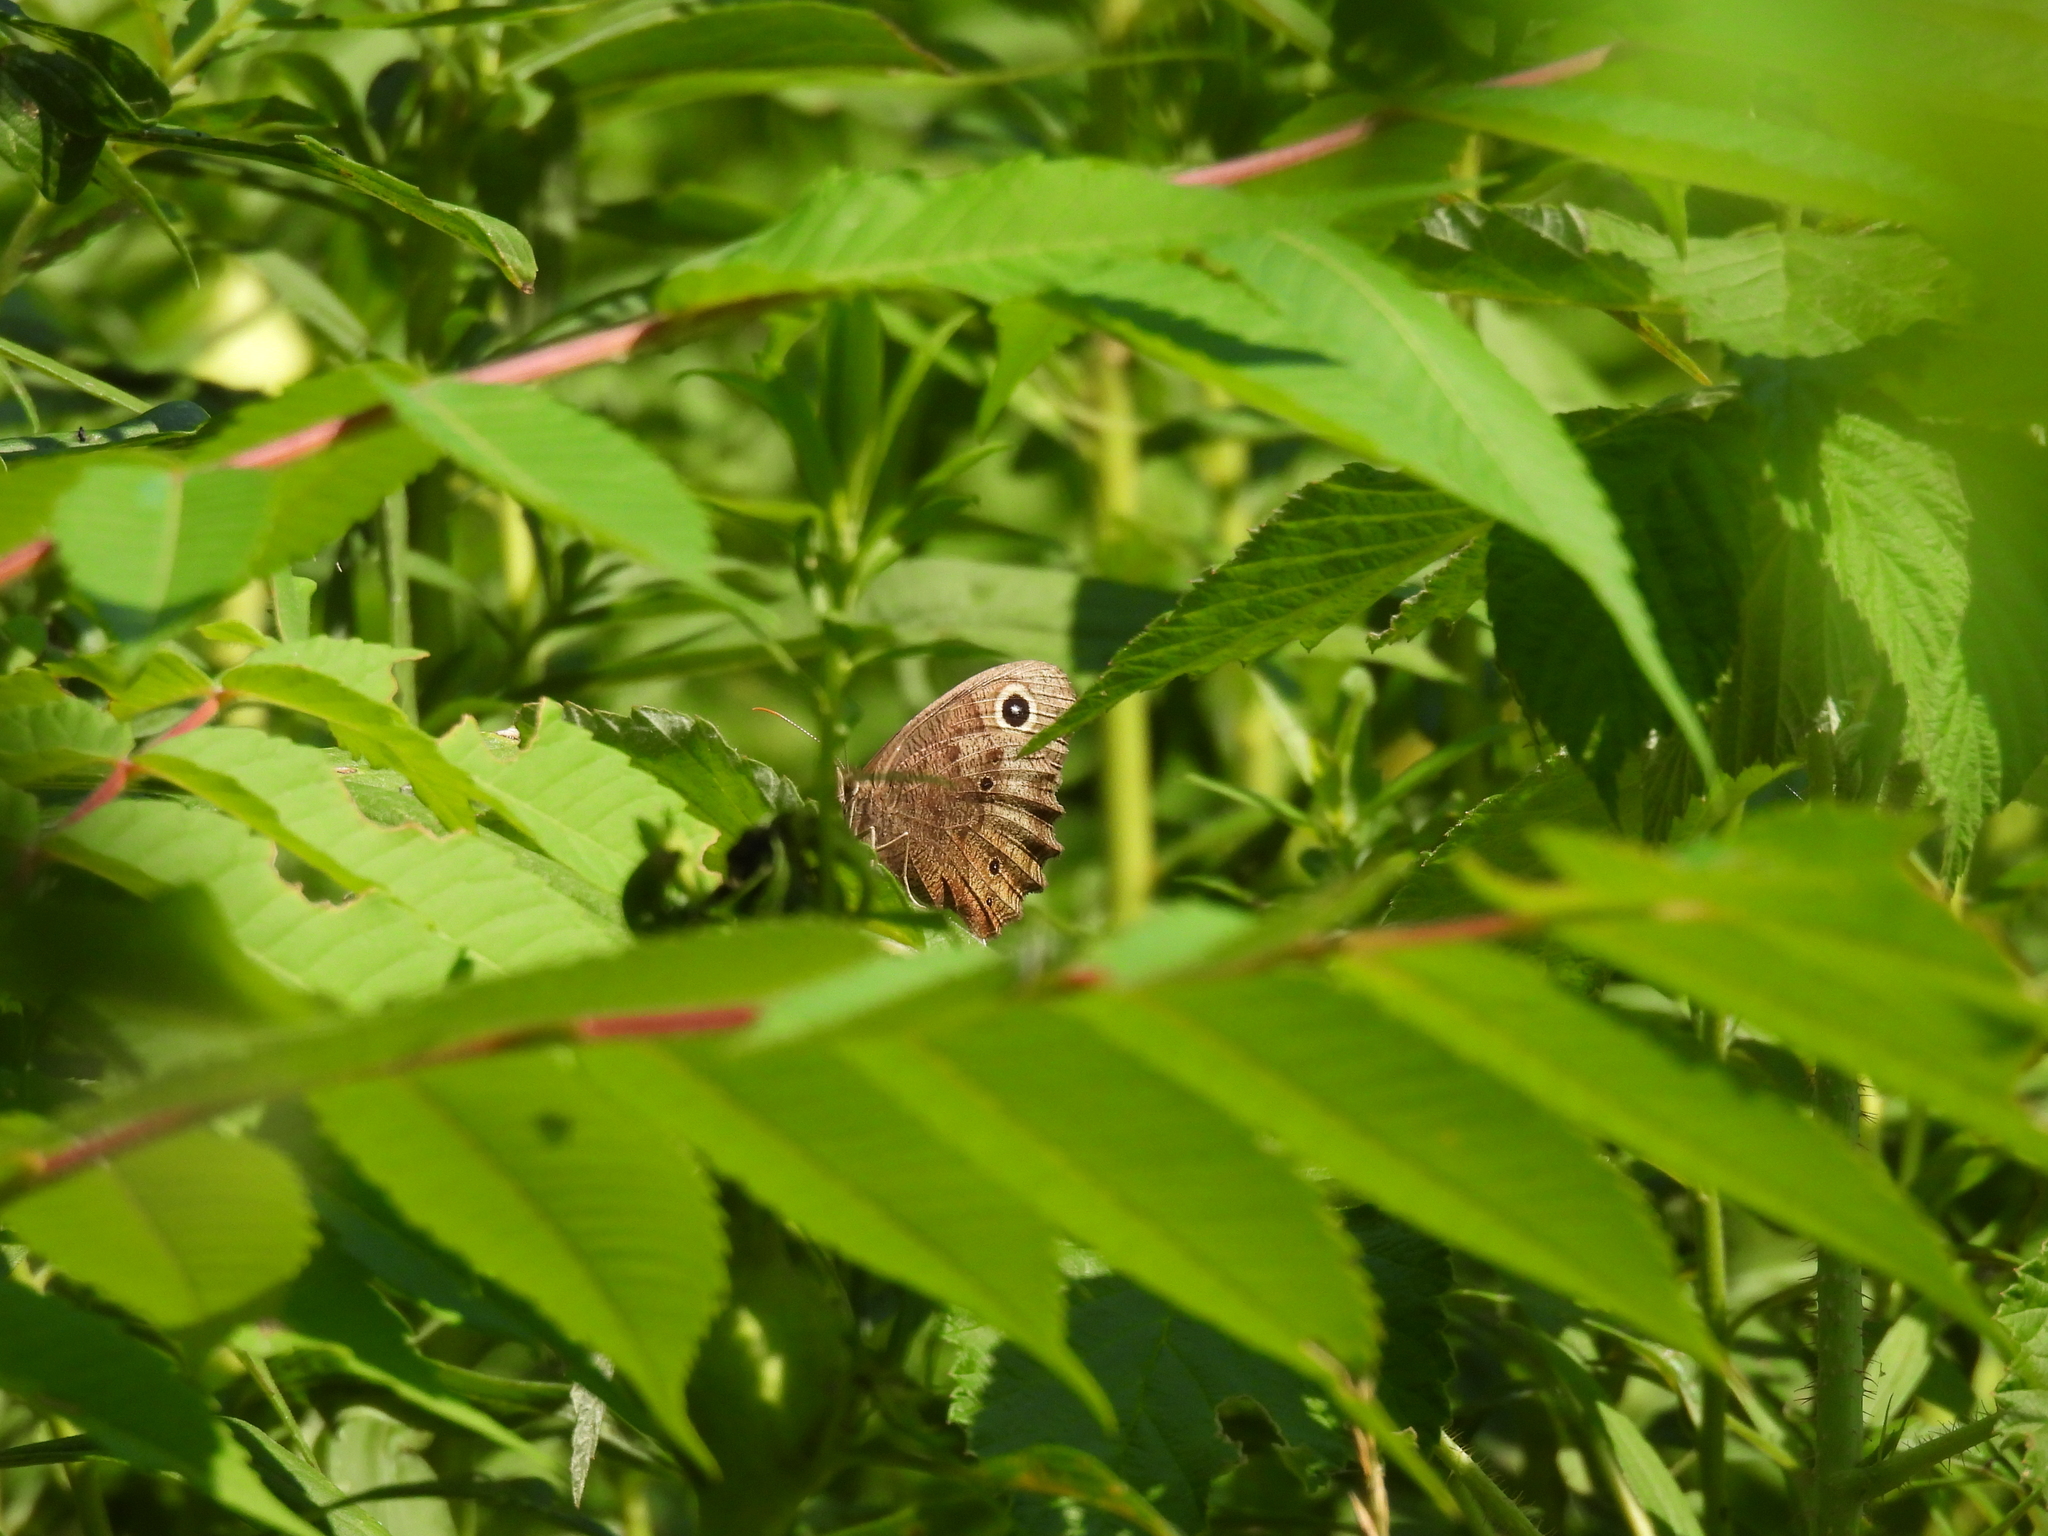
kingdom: Animalia
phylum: Arthropoda
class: Insecta
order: Lepidoptera
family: Nymphalidae
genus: Cercyonis
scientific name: Cercyonis pegala
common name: Common wood-nymph
